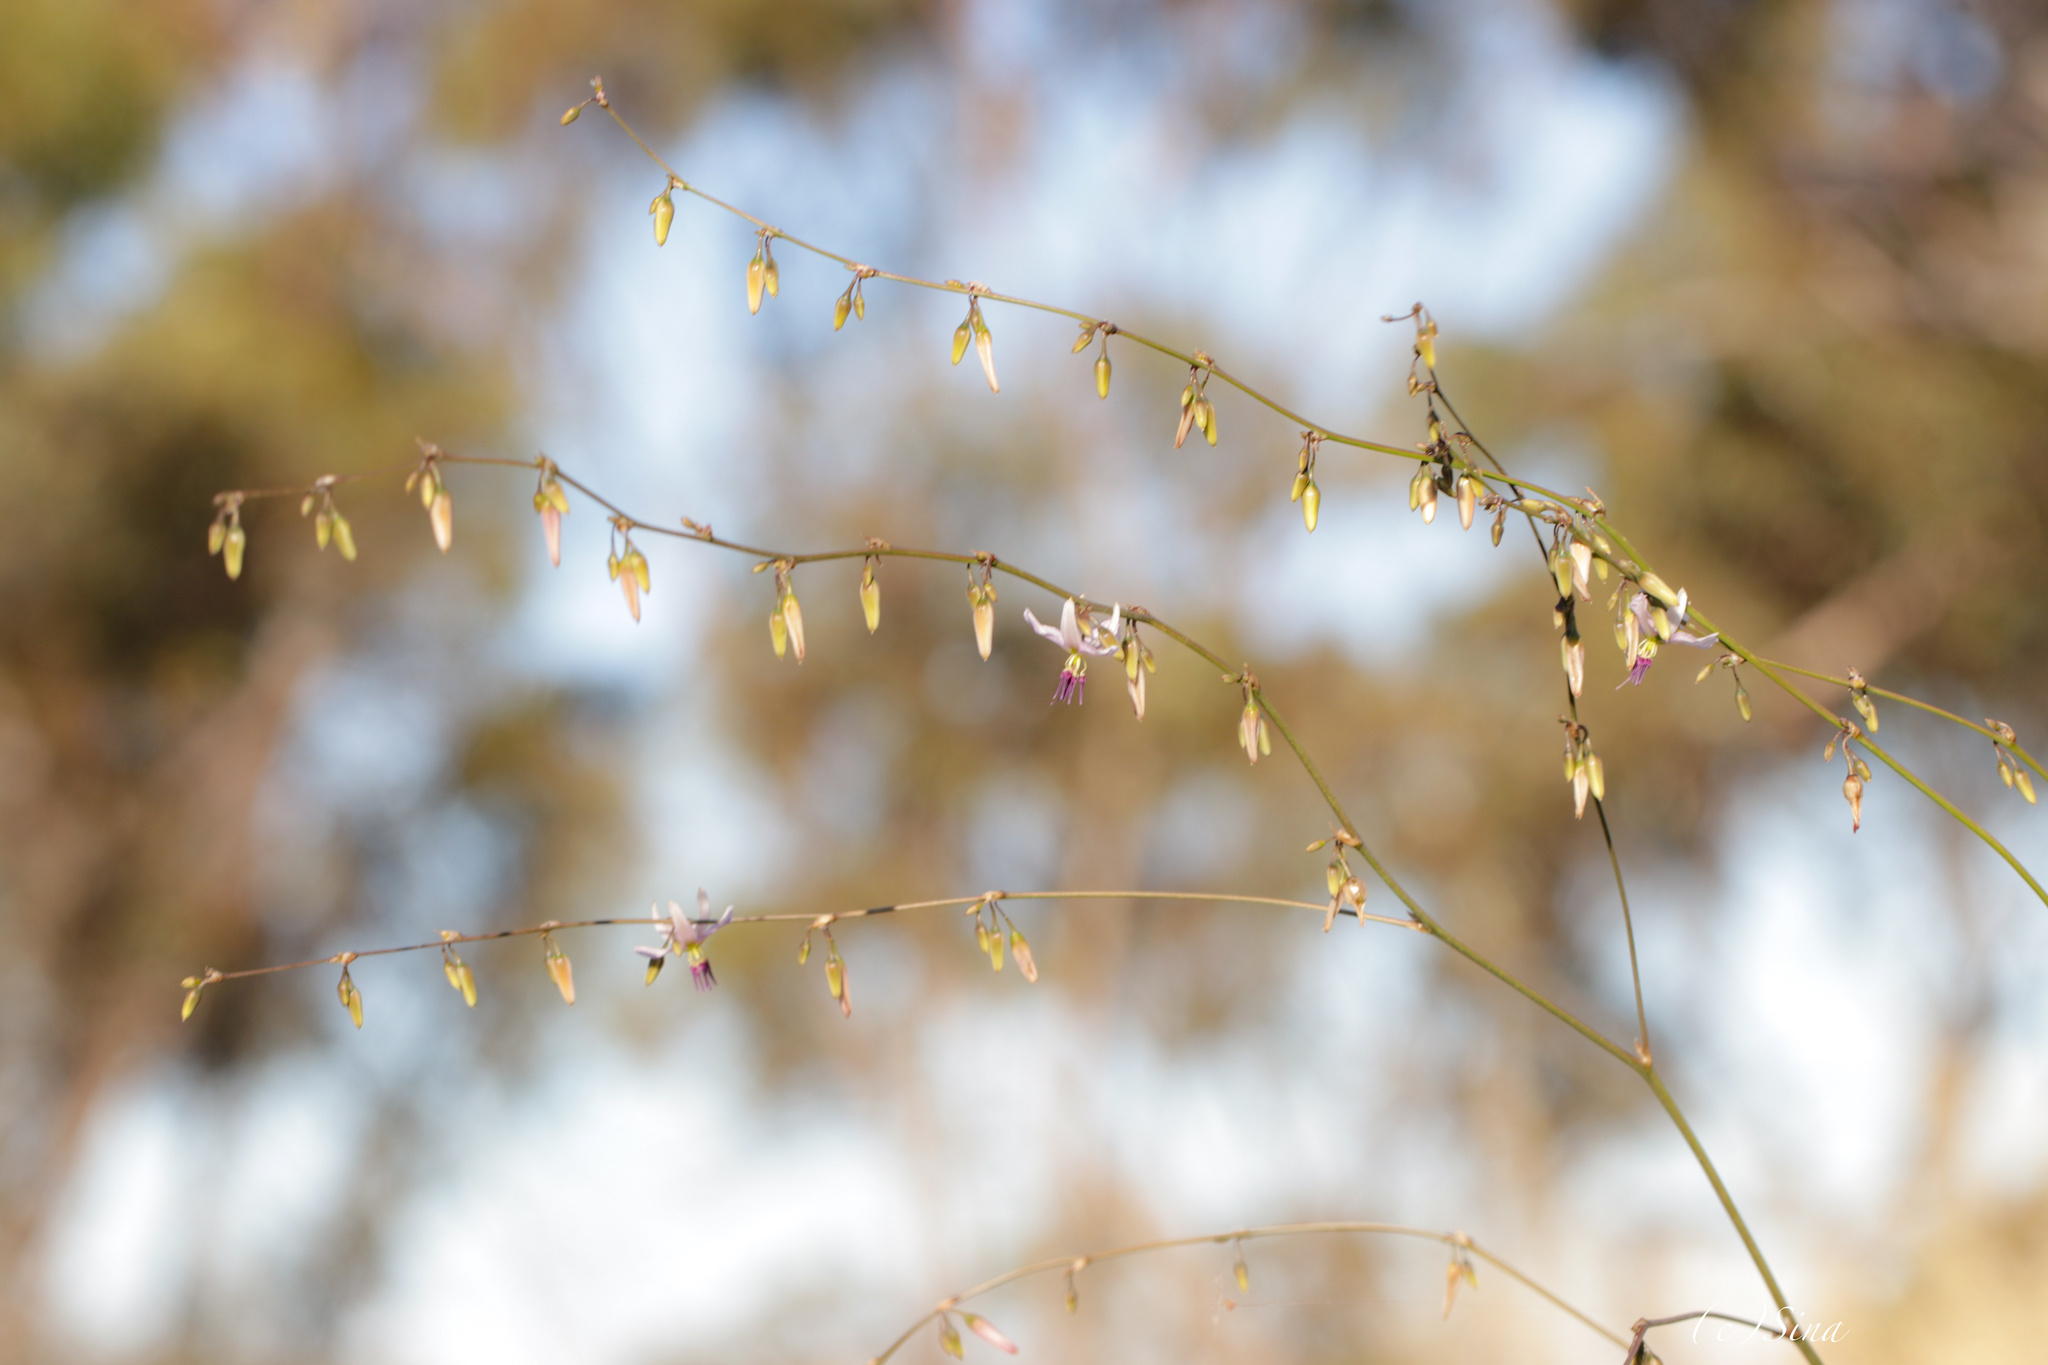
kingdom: Plantae
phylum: Tracheophyta
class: Liliopsida
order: Asparagales
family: Asparagaceae
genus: Dichopogon
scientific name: Dichopogon capillipes
